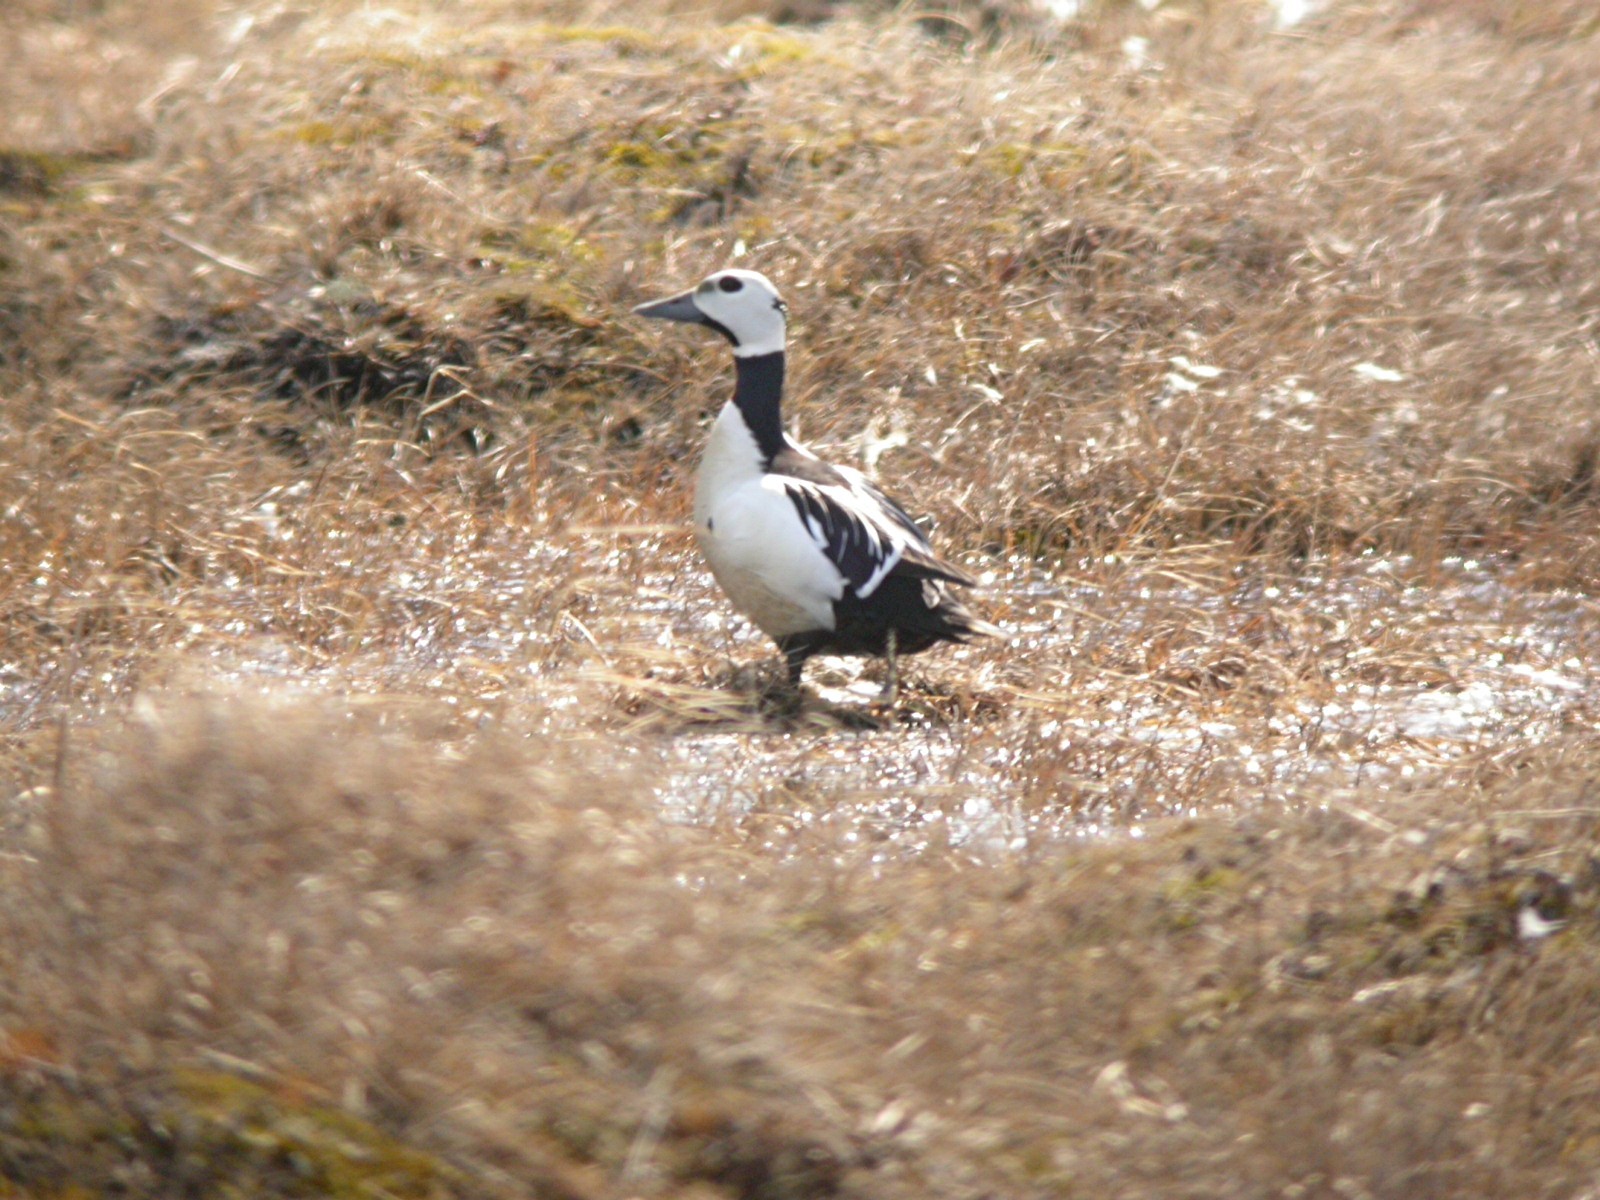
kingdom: Animalia
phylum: Chordata
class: Aves
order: Anseriformes
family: Anatidae
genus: Polysticta
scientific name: Polysticta stelleri
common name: Steller's eider
